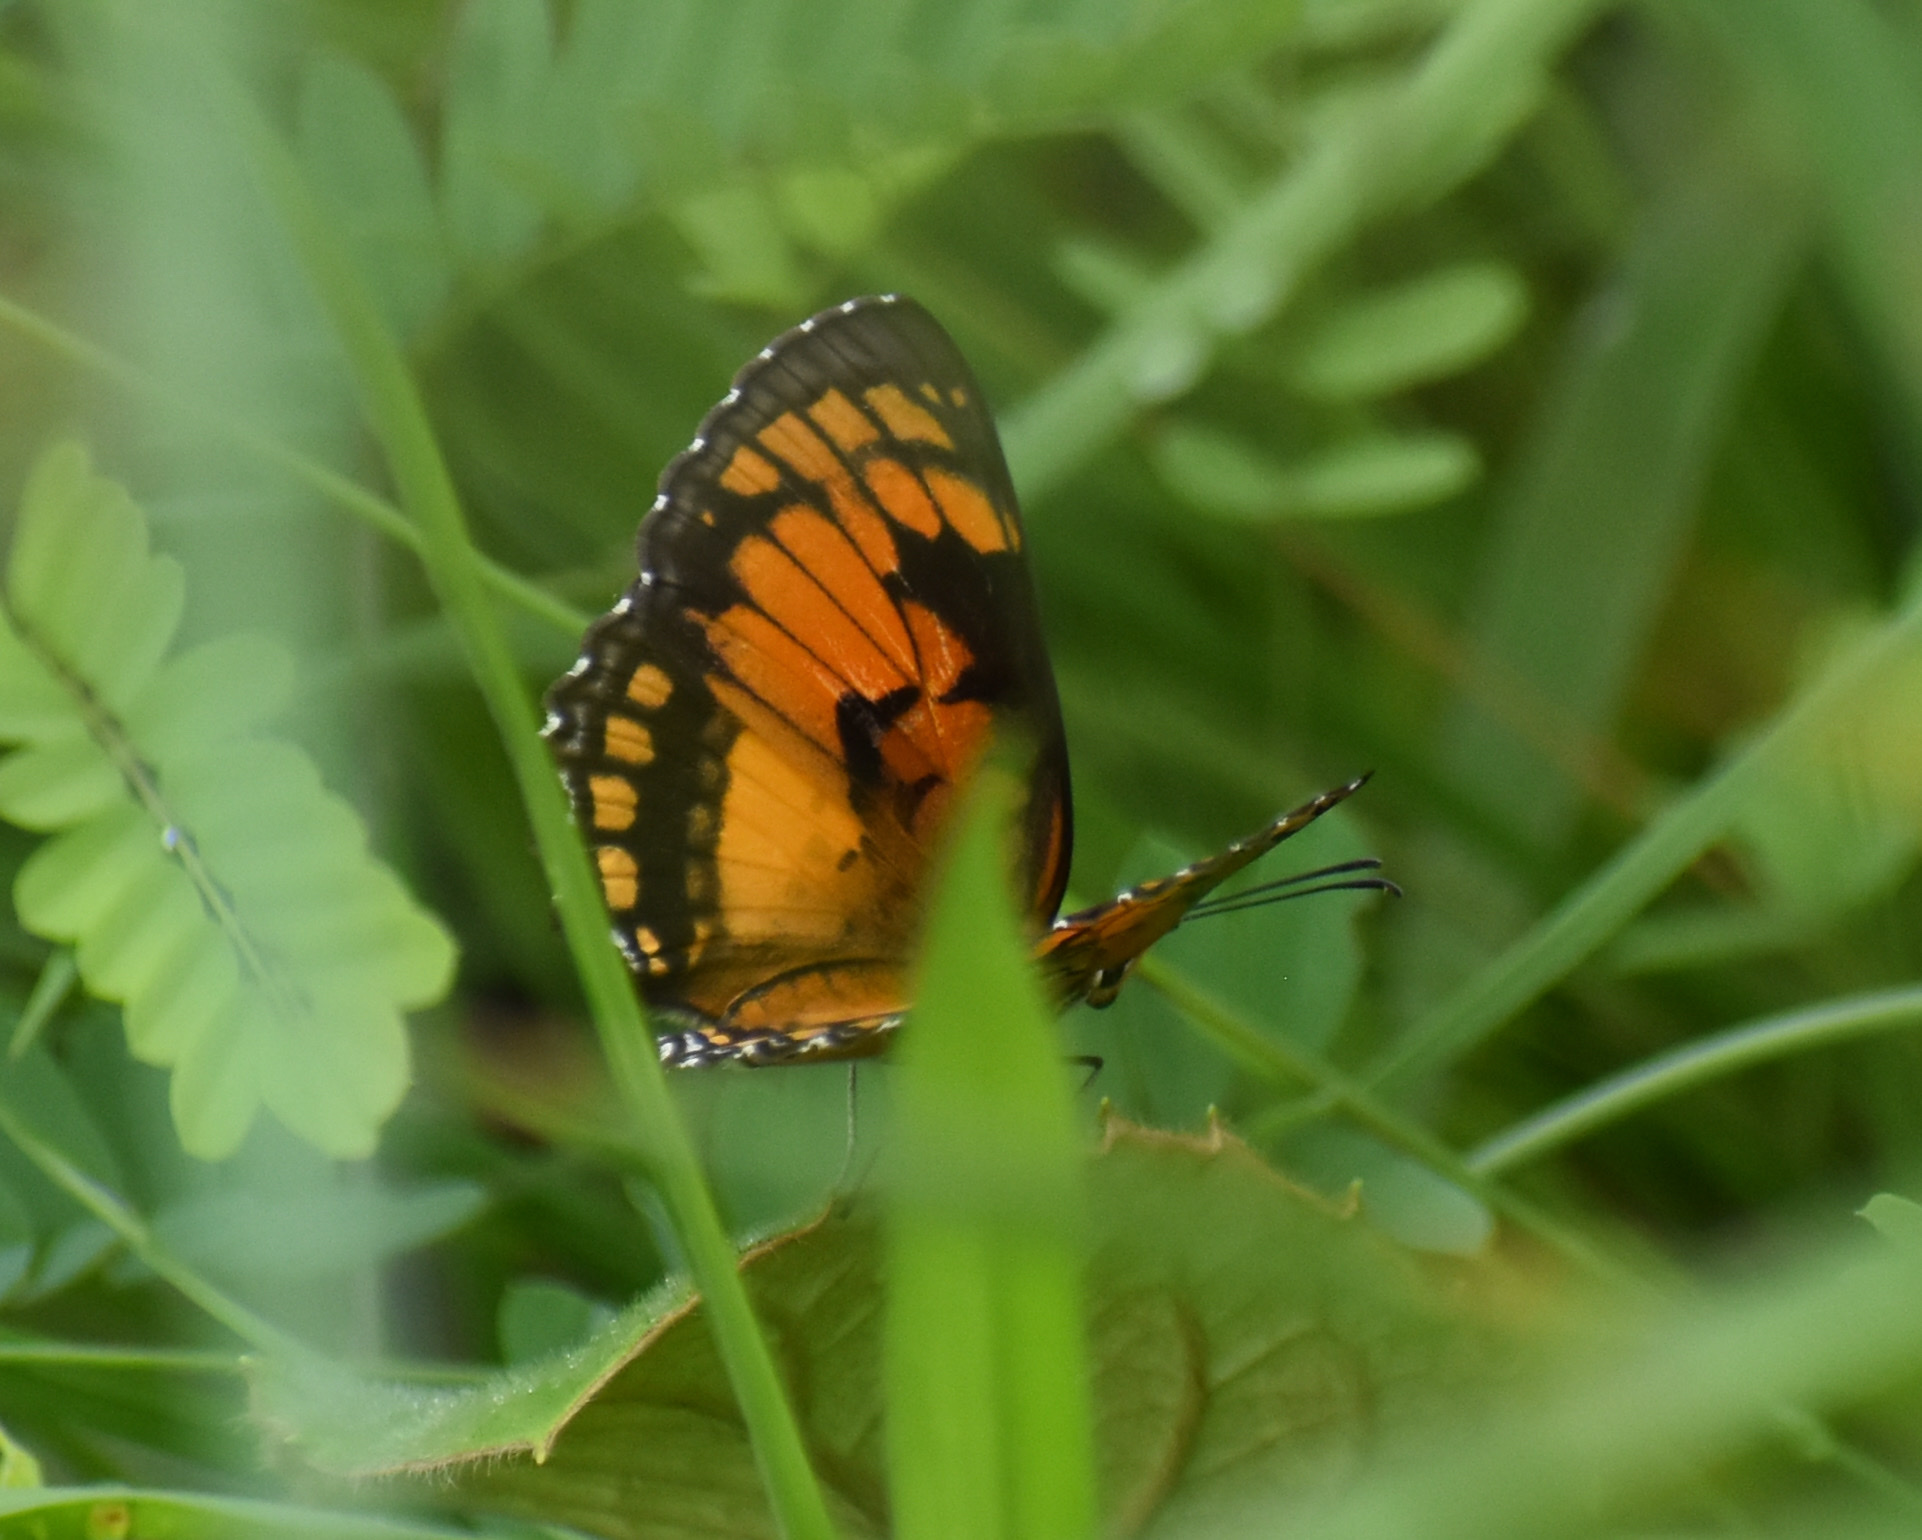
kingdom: Animalia
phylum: Arthropoda
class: Insecta
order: Lepidoptera
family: Nymphalidae
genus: Byblia
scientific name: Byblia anvatara
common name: African joker
